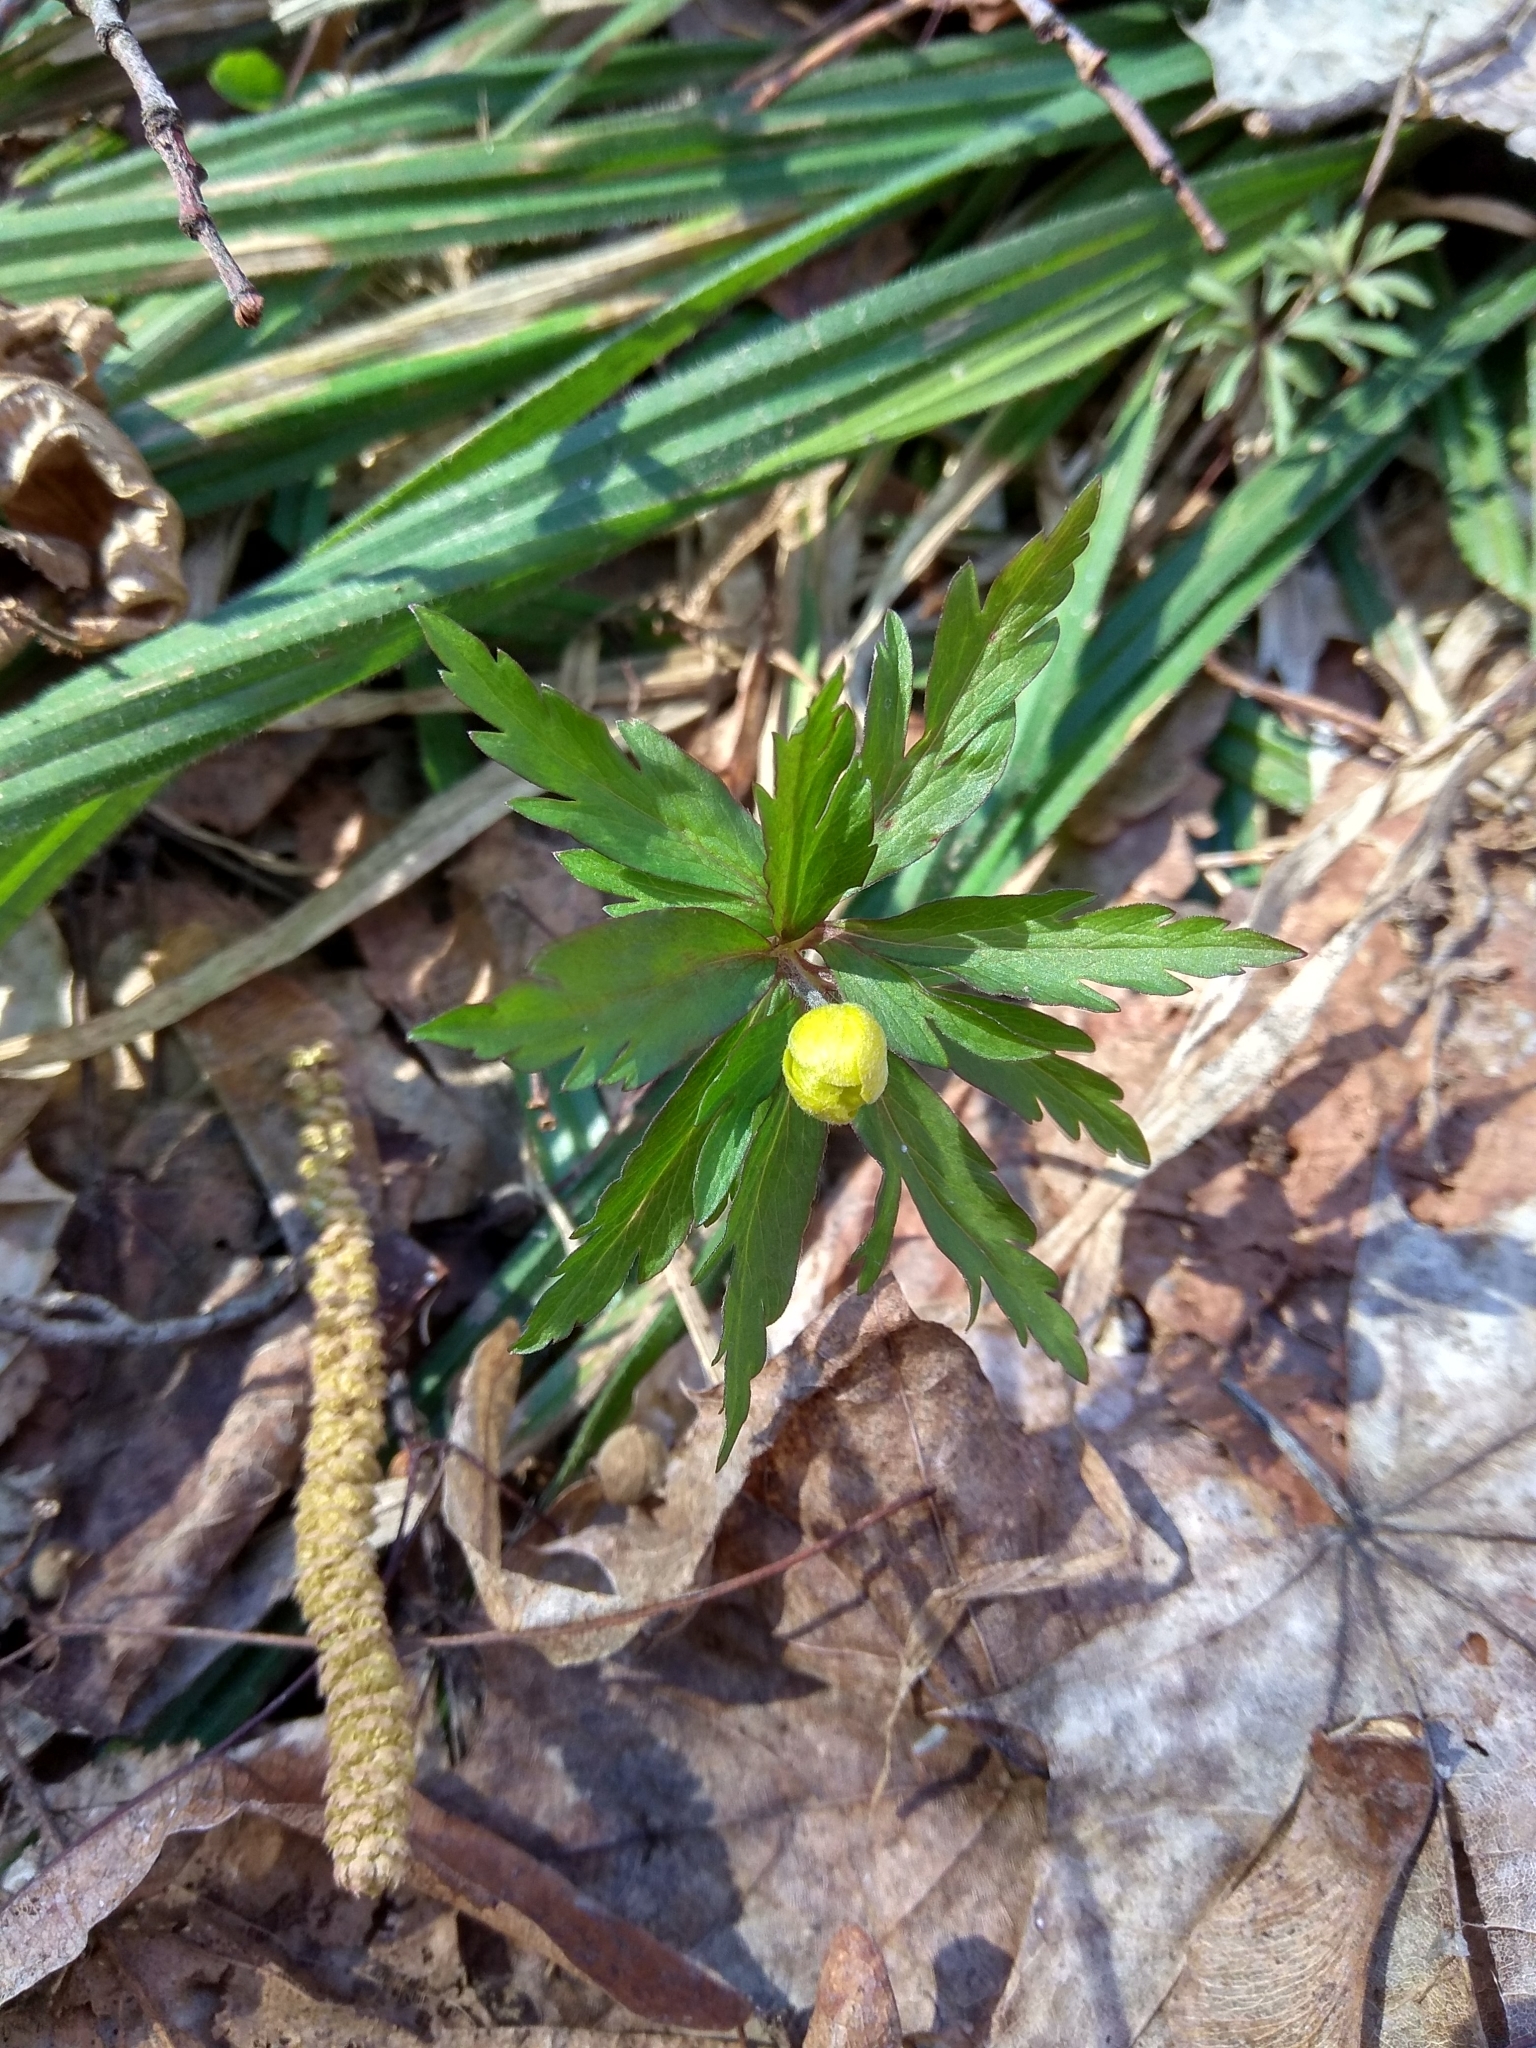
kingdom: Plantae
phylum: Tracheophyta
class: Magnoliopsida
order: Ranunculales
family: Ranunculaceae
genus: Anemone
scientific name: Anemone ranunculoides
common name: Yellow anemone
